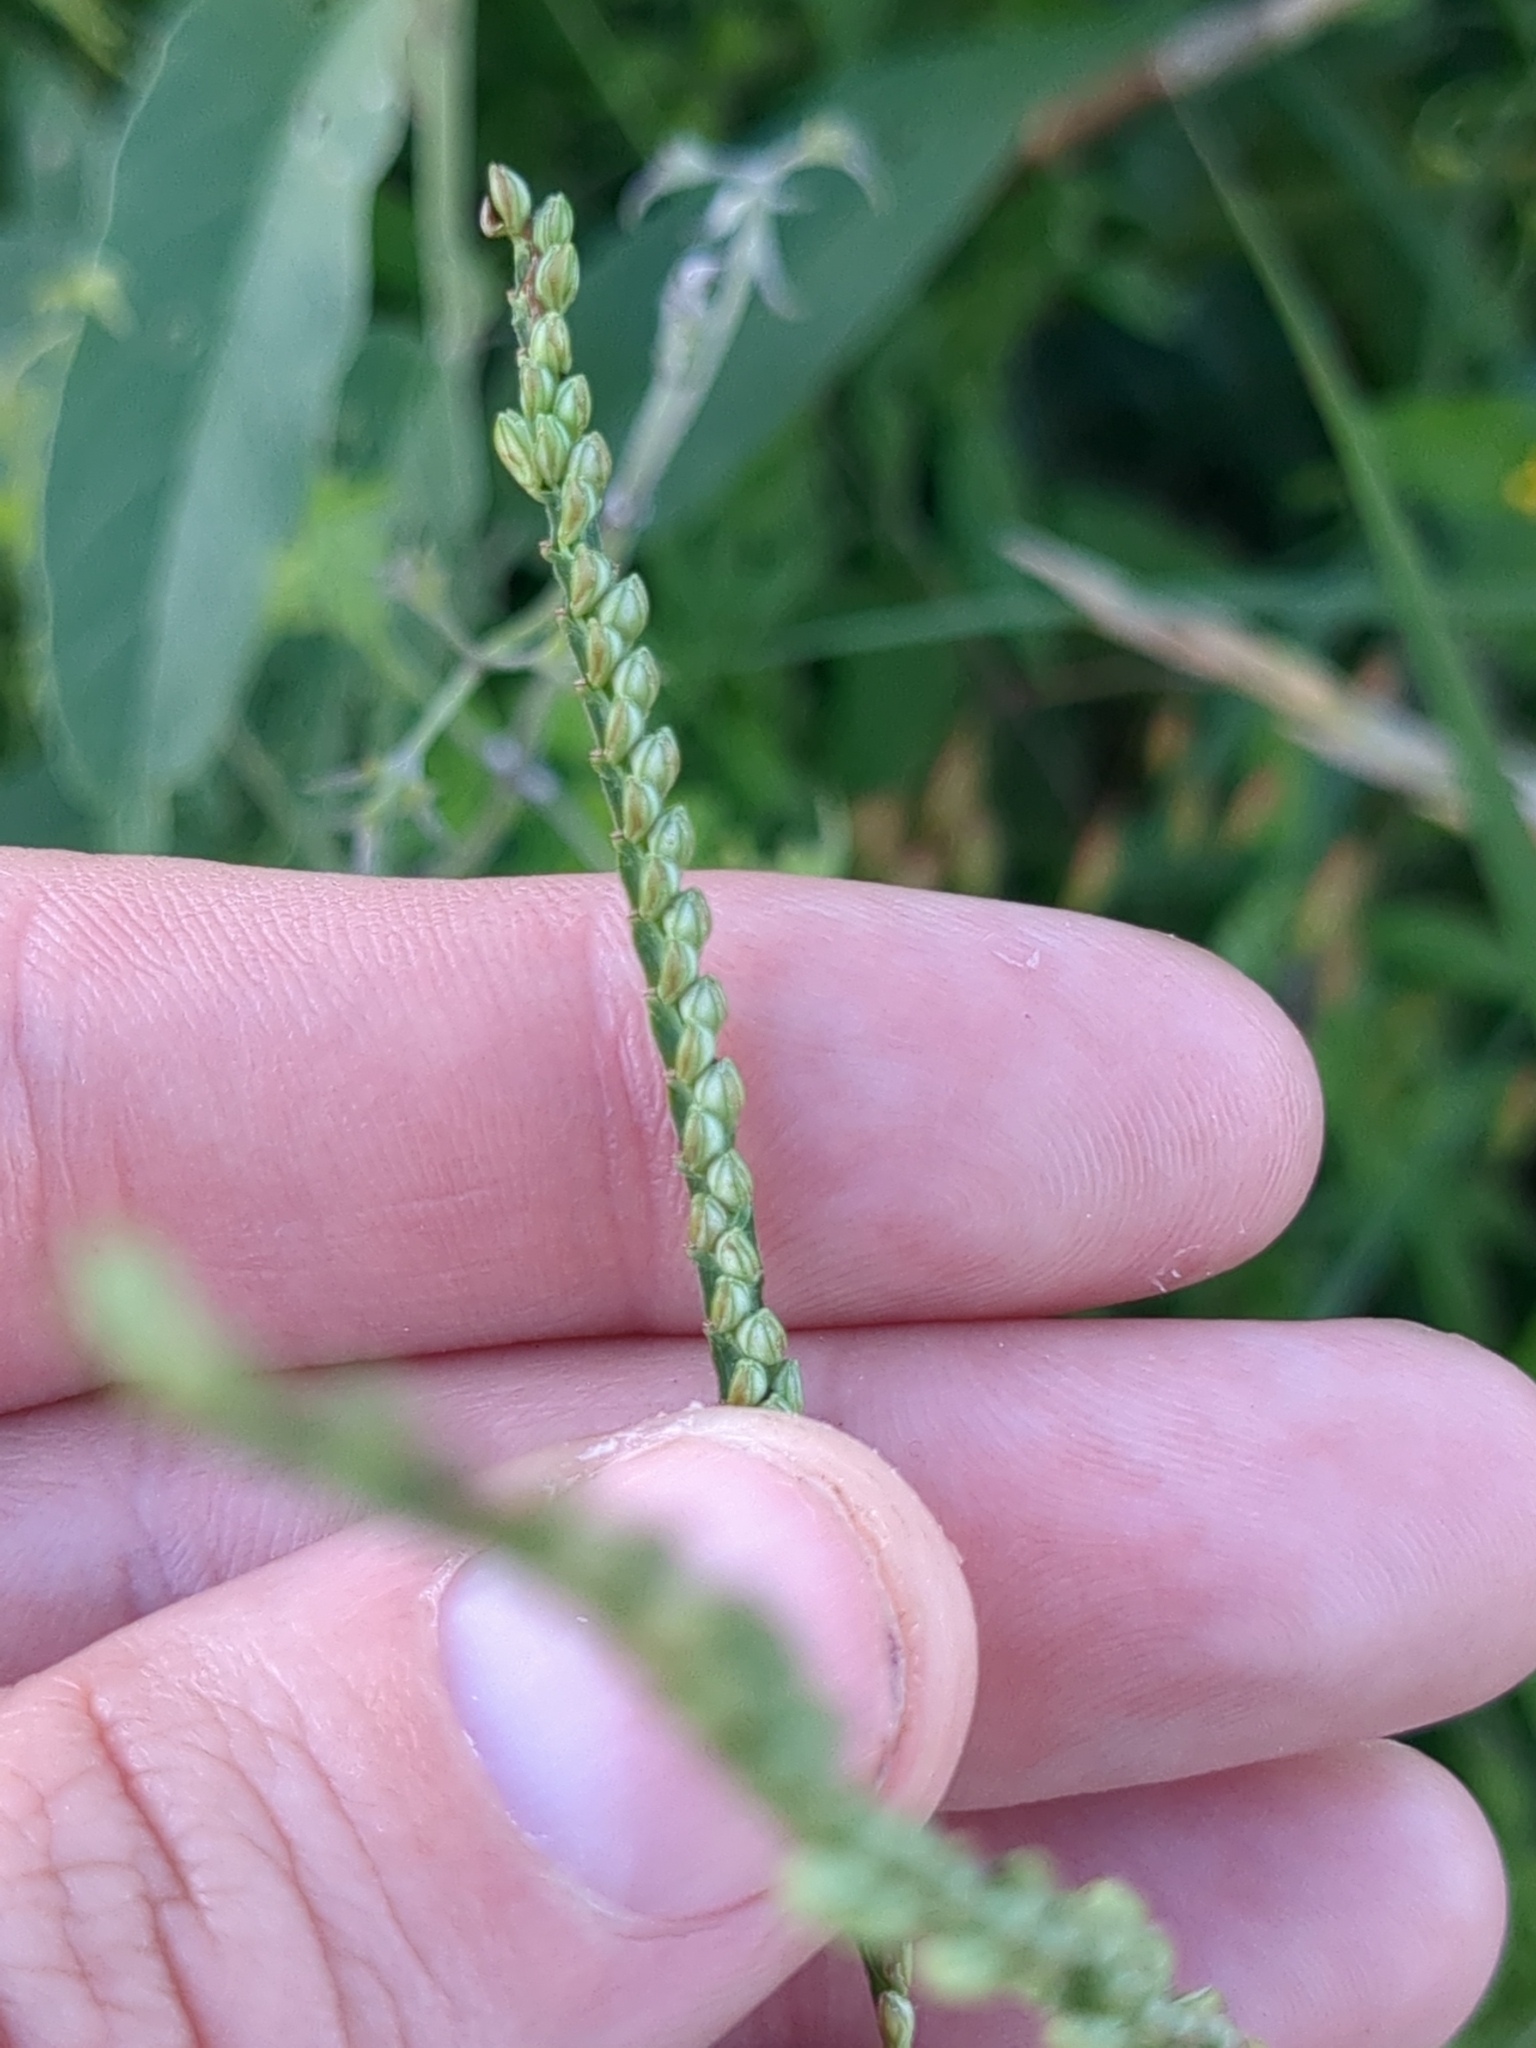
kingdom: Plantae
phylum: Tracheophyta
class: Liliopsida
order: Poales
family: Poaceae
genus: Paspalum
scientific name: Paspalum pubiflorum
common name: Hairy-seed paspalum
